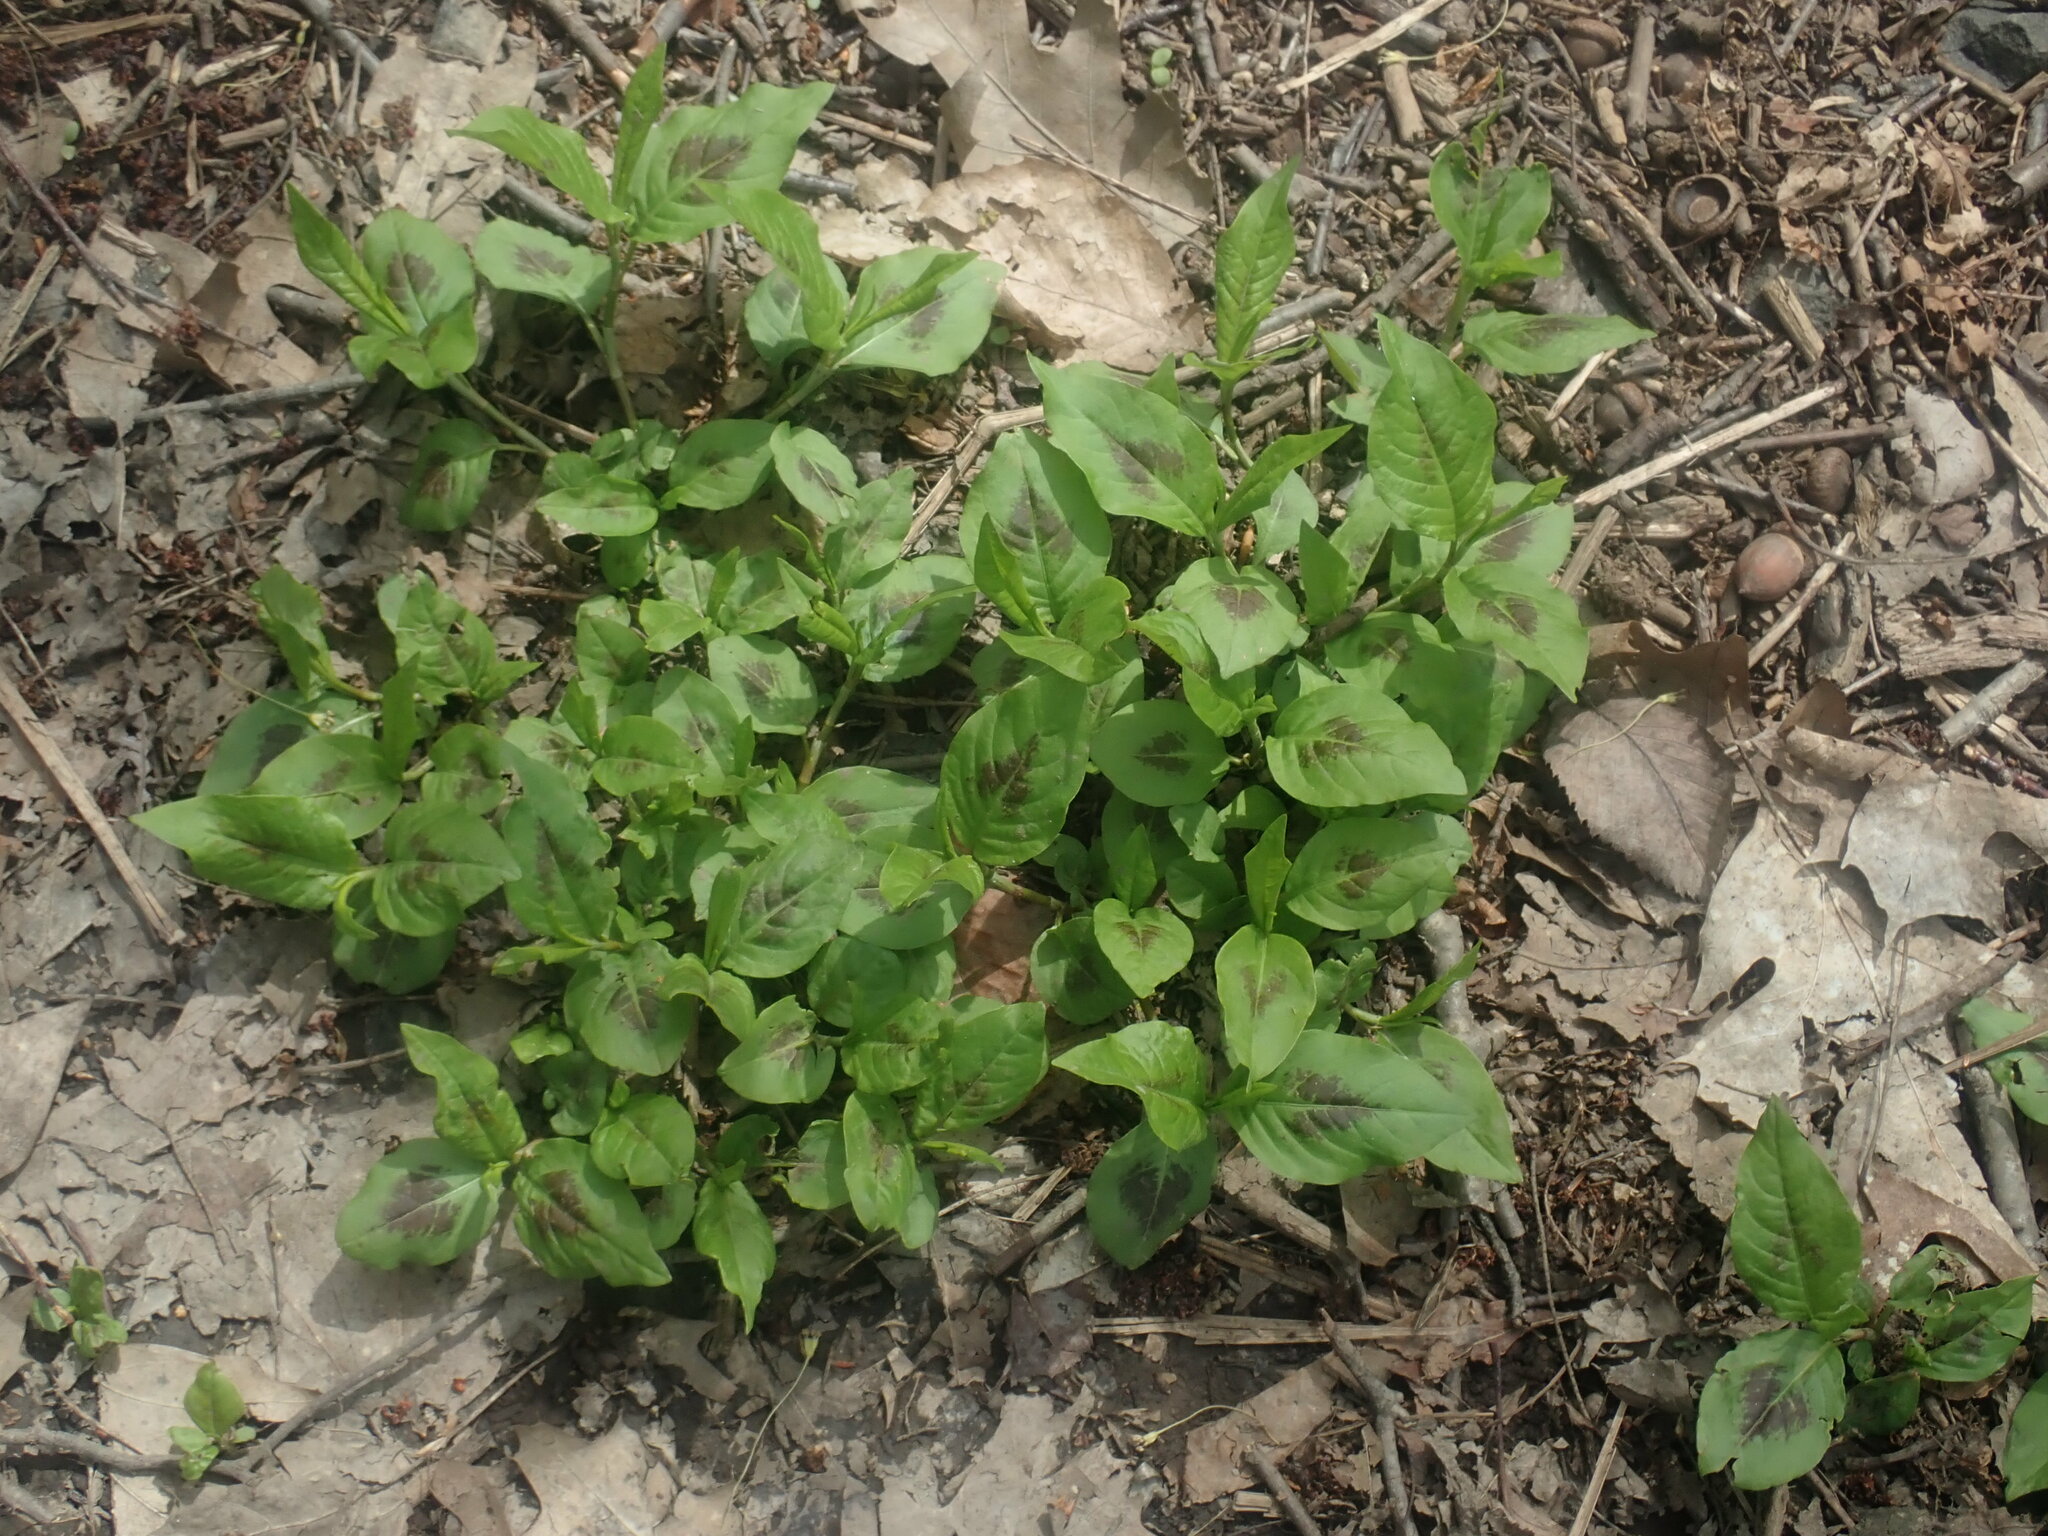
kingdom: Plantae
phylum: Tracheophyta
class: Magnoliopsida
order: Caryophyllales
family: Polygonaceae
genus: Persicaria
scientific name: Persicaria virginiana
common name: Jumpseed
